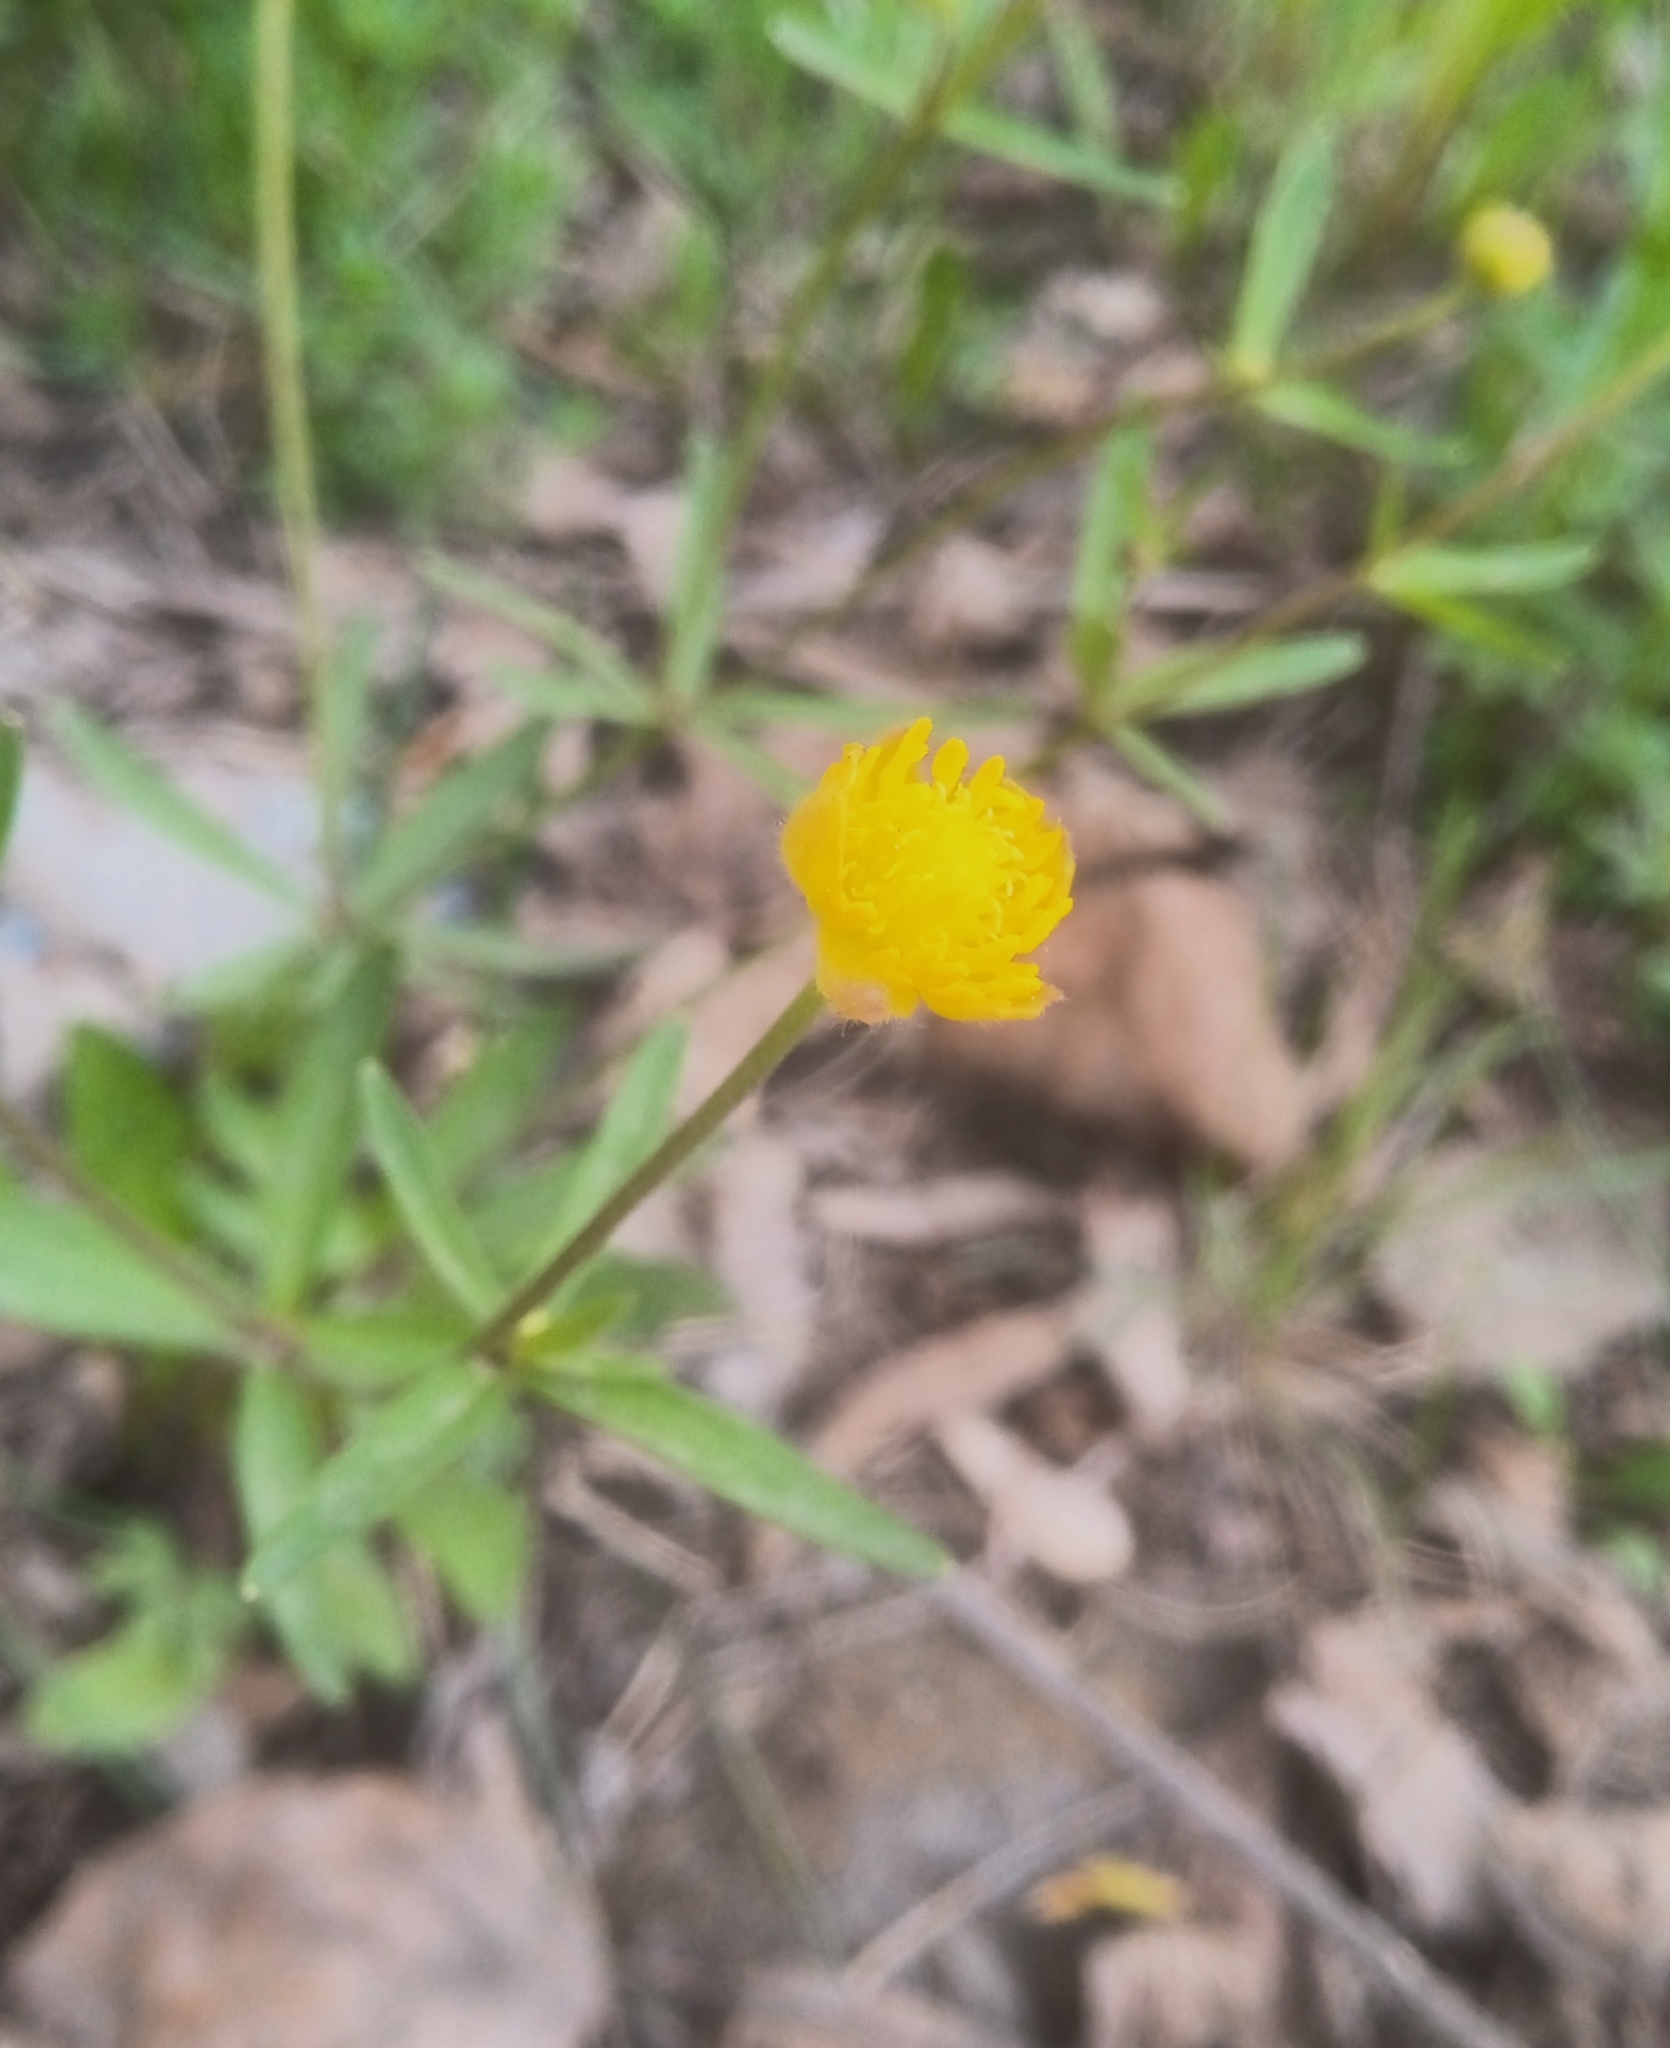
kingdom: Plantae
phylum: Tracheophyta
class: Magnoliopsida
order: Ranunculales
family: Ranunculaceae
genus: Ranunculus
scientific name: Ranunculus auricomus
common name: Goldilocks buttercup
